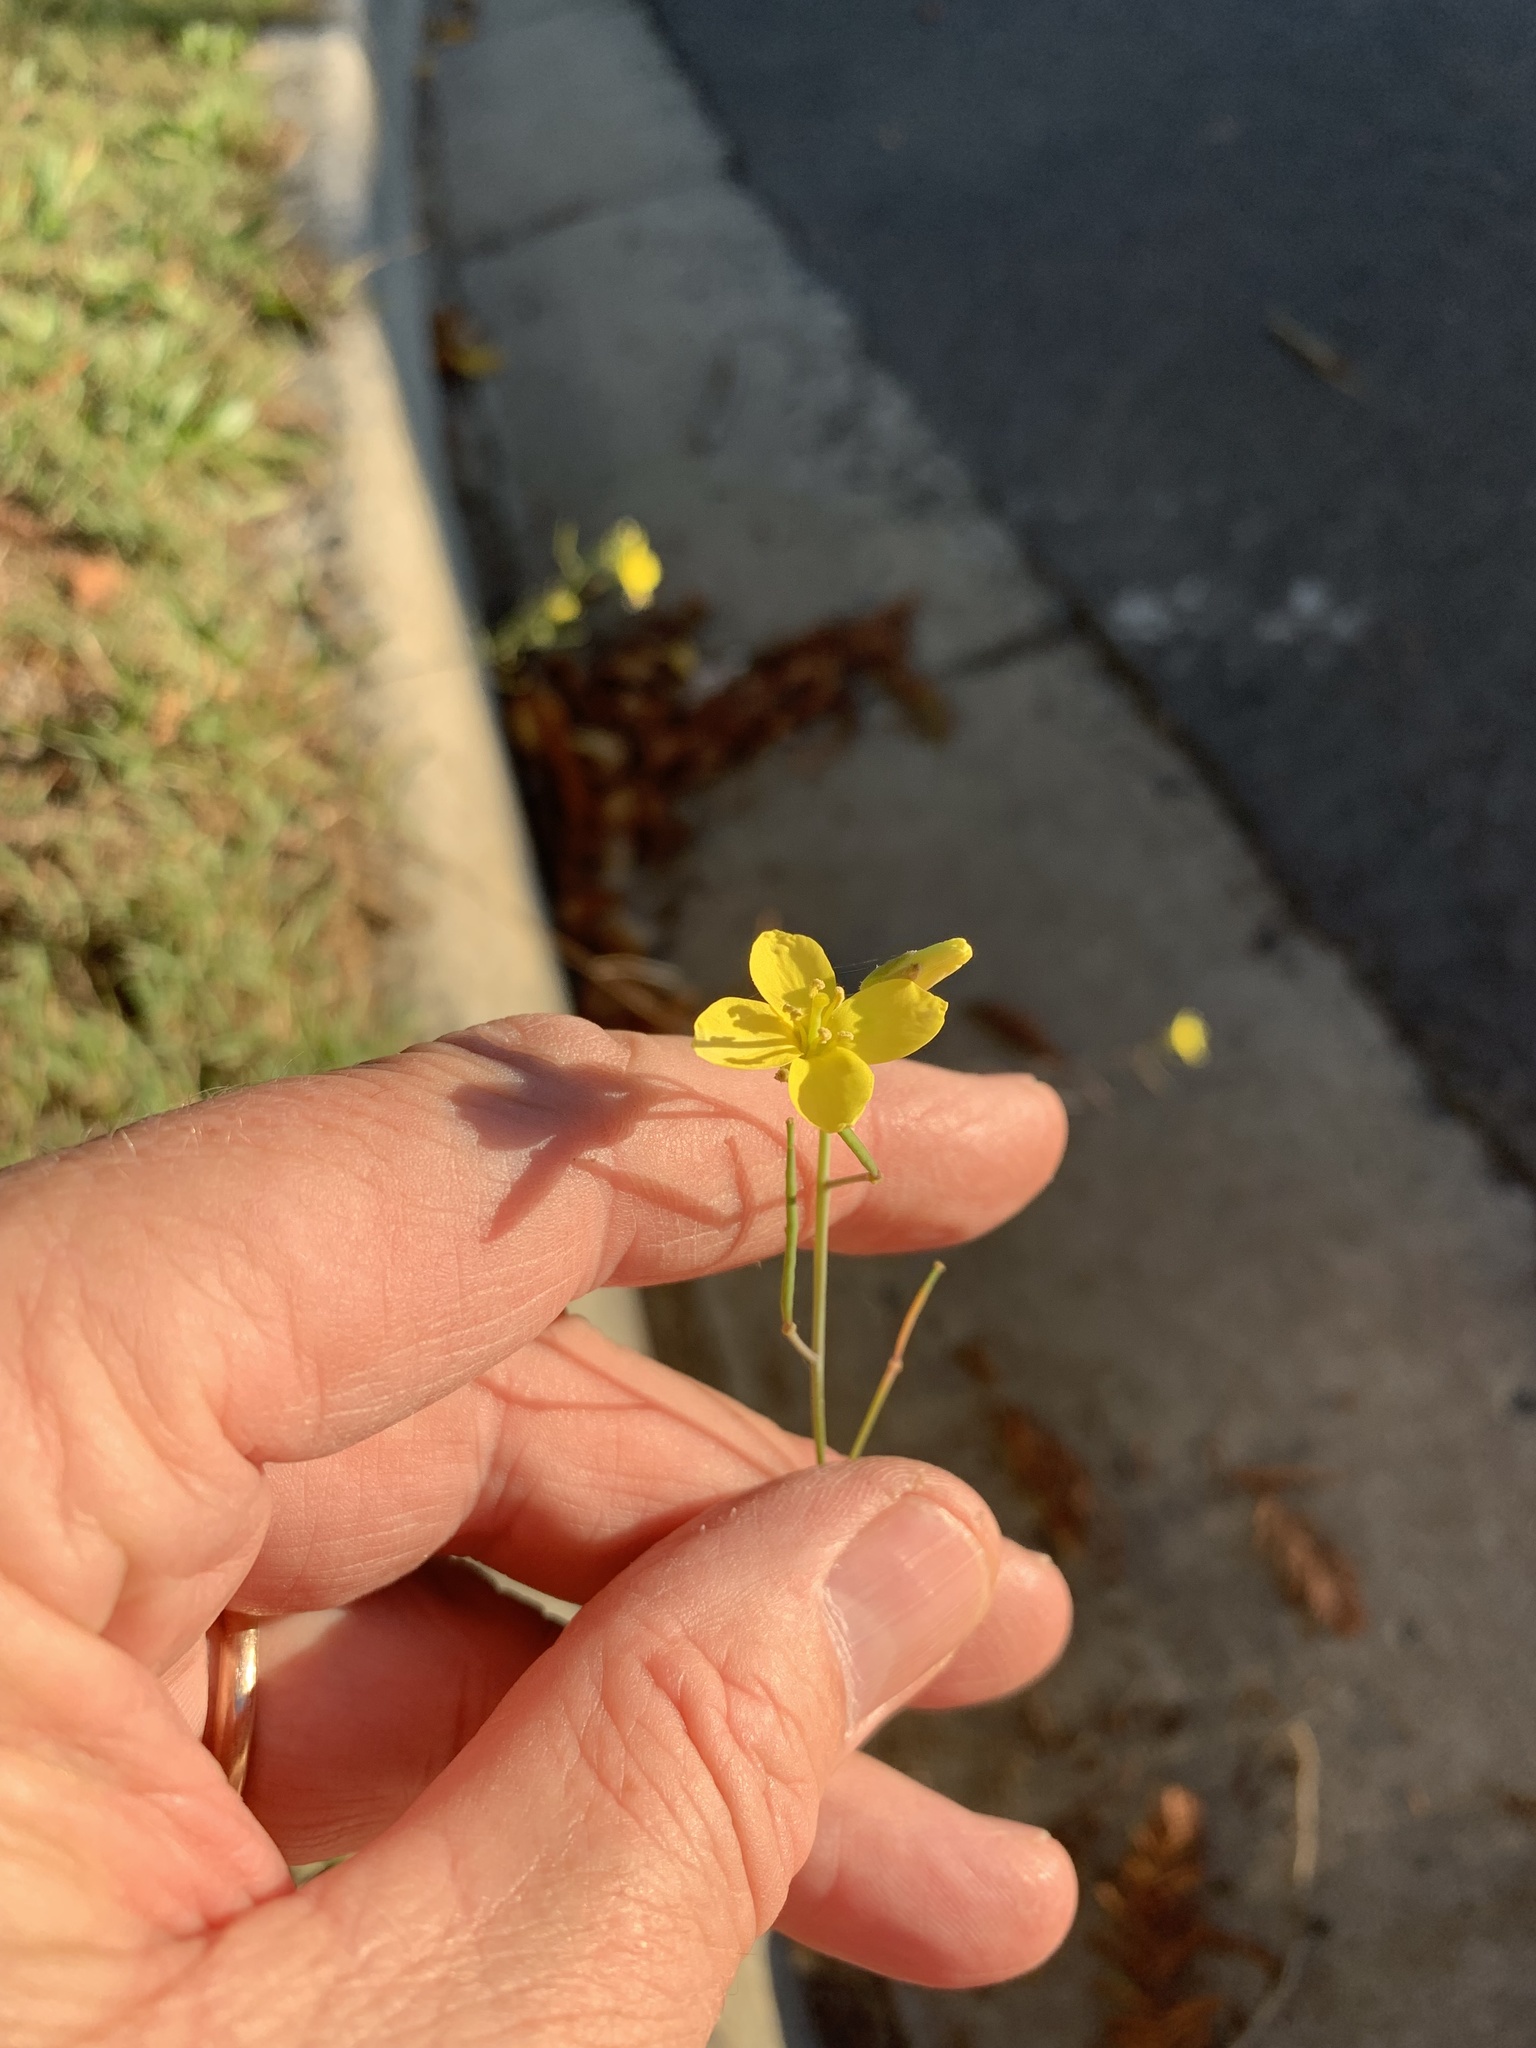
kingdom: Plantae
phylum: Tracheophyta
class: Magnoliopsida
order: Brassicales
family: Brassicaceae
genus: Diplotaxis
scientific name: Diplotaxis tenuifolia
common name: Perennial wall-rocket
